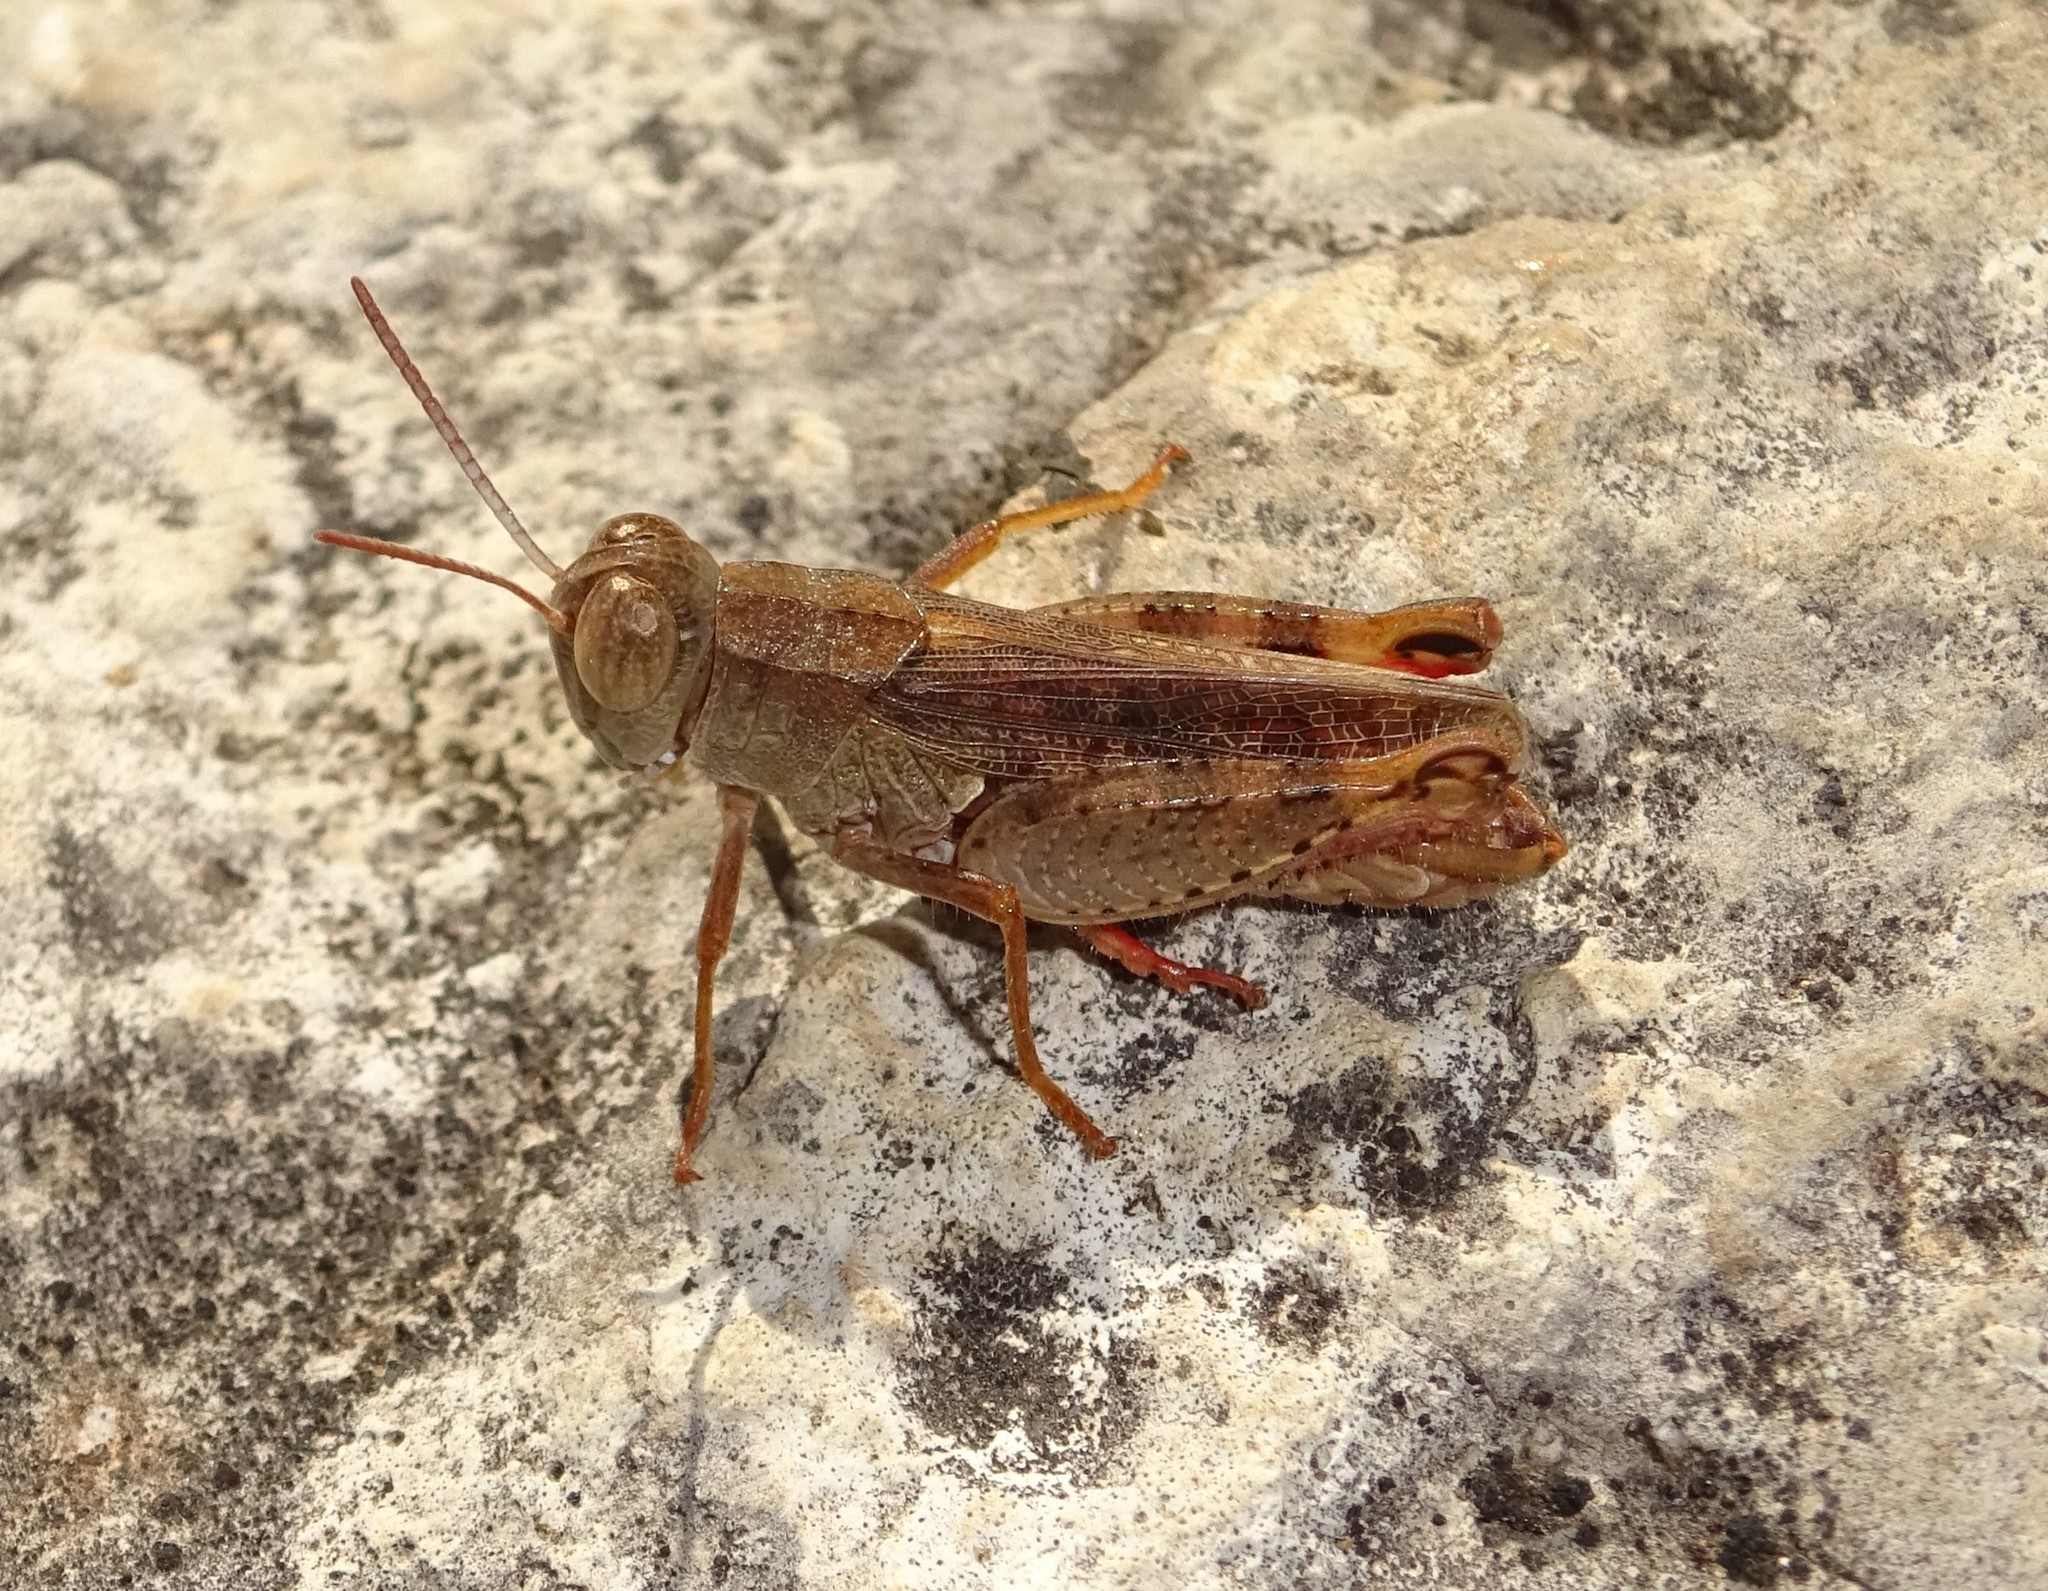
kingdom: Animalia
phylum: Arthropoda
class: Insecta
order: Orthoptera
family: Acrididae
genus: Calliptamus
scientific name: Calliptamus barbarus
